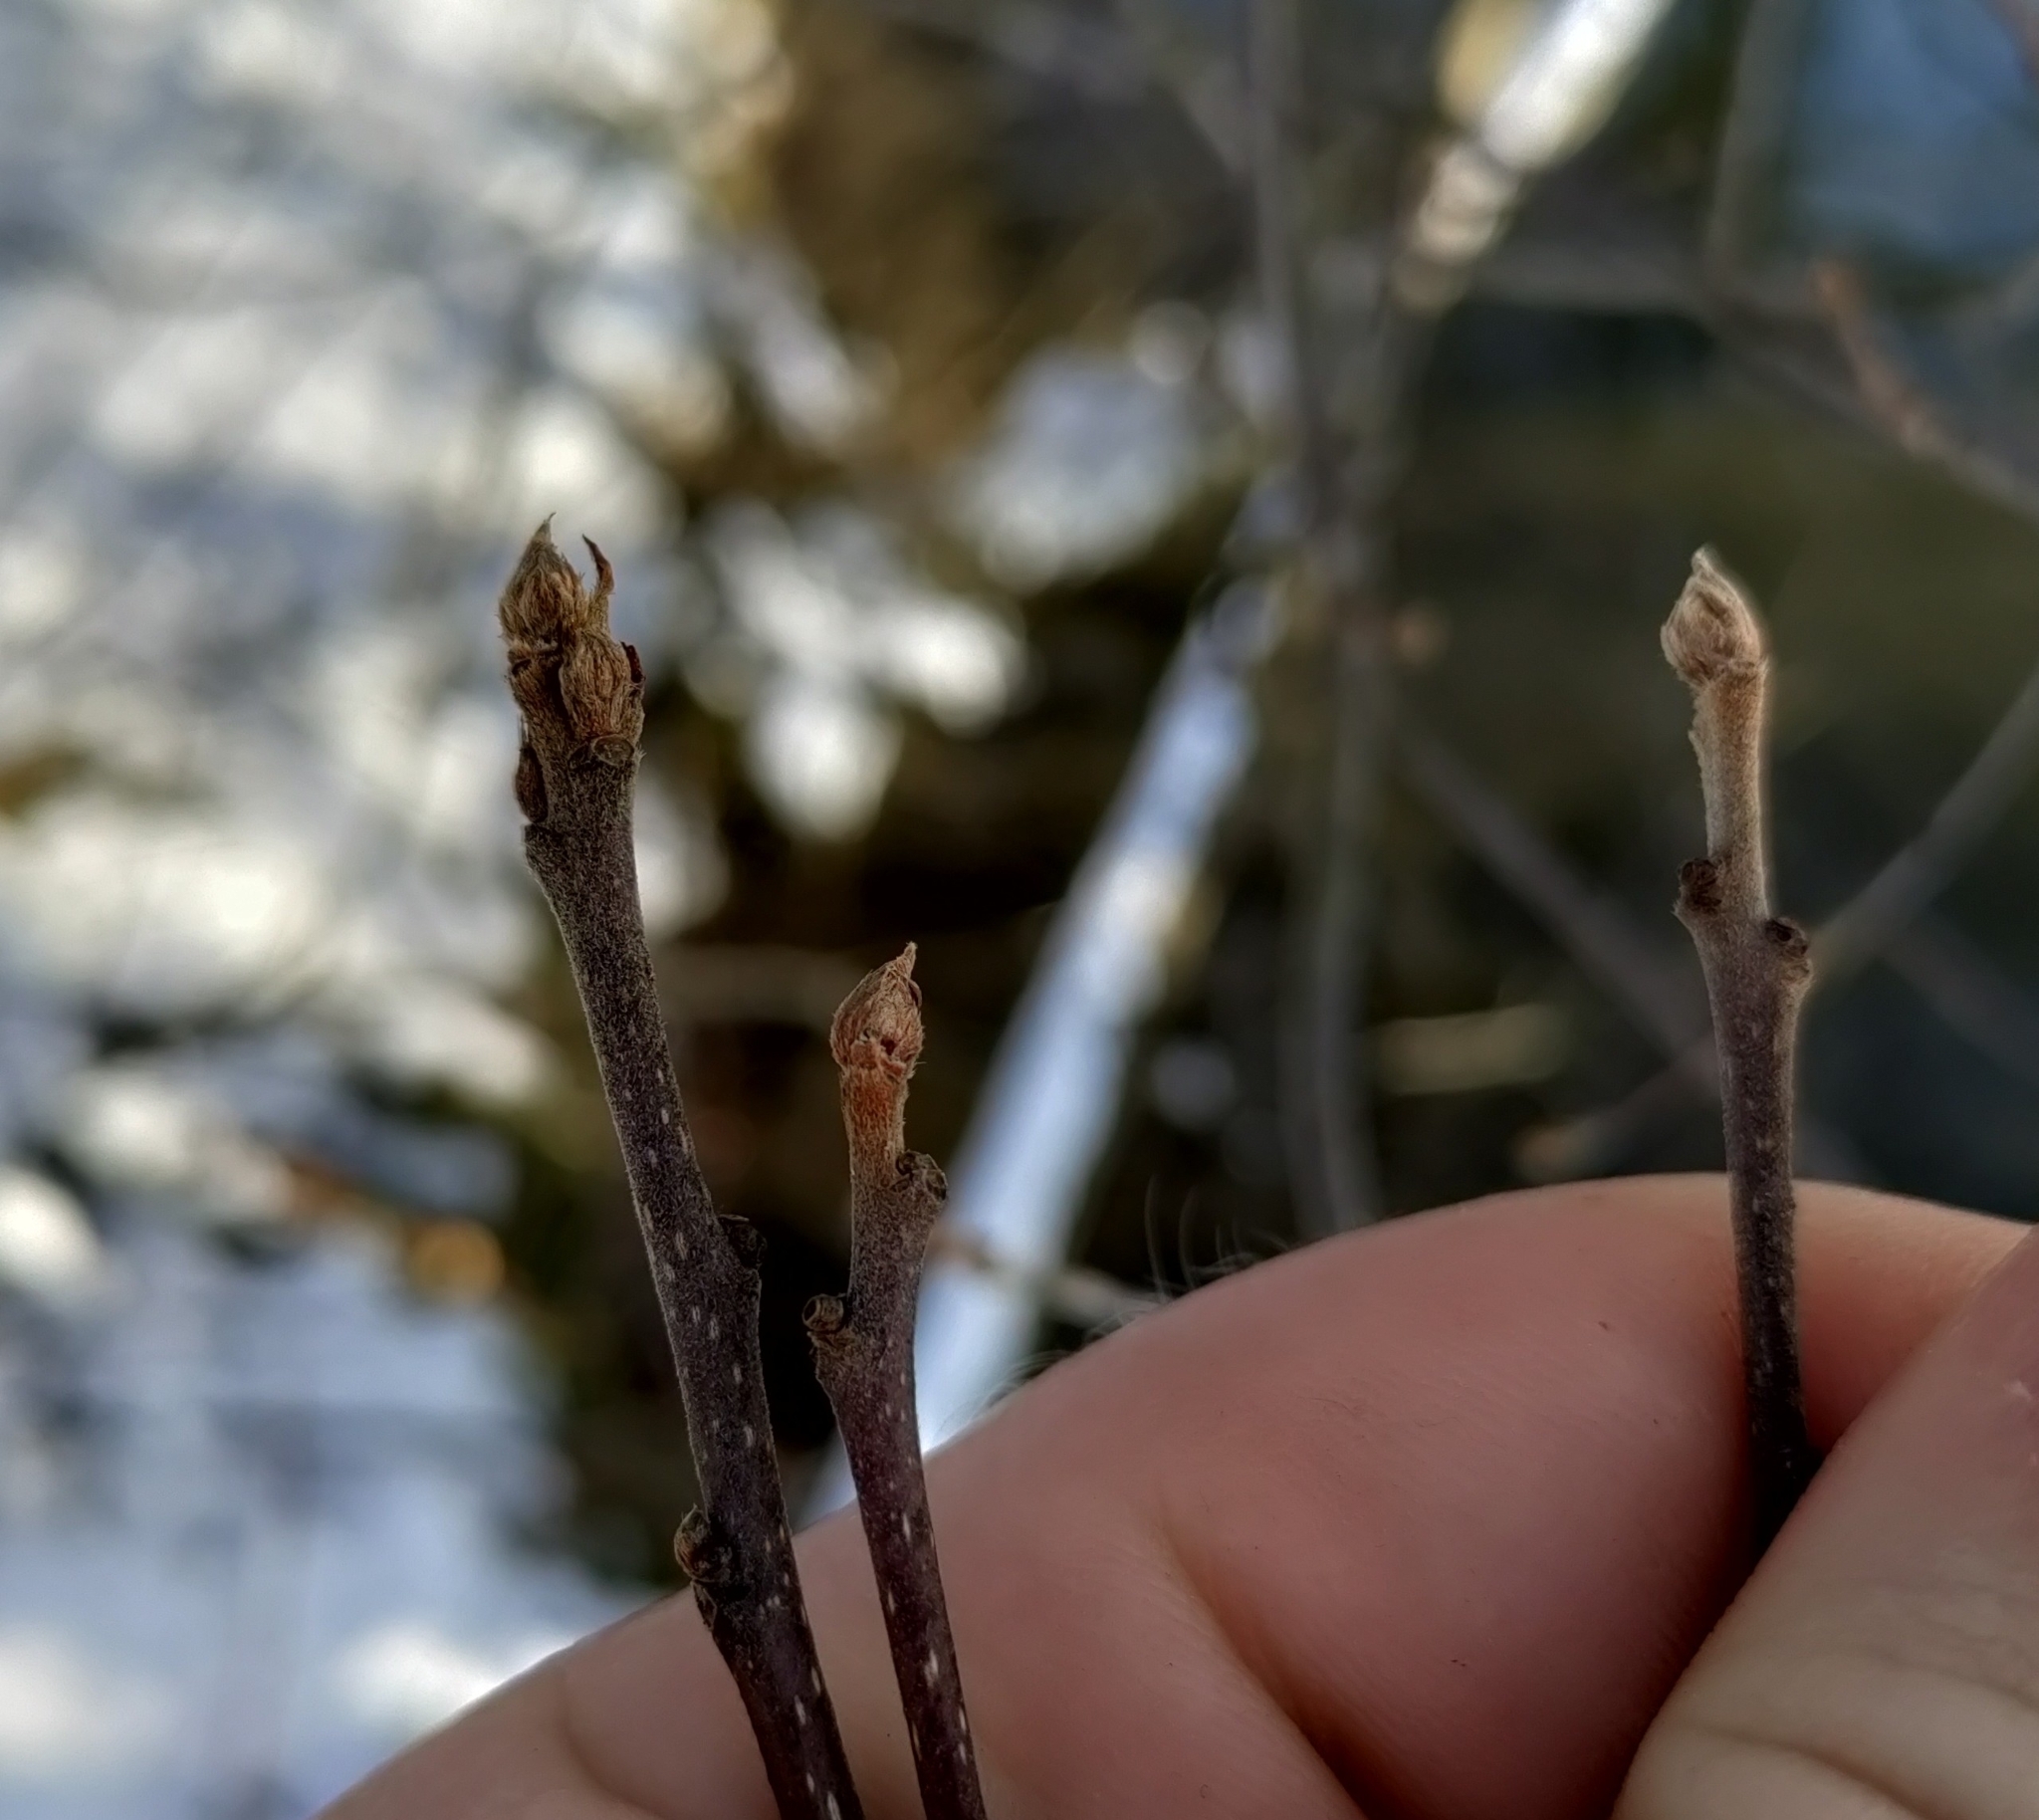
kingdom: Plantae
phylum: Tracheophyta
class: Magnoliopsida
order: Rosales
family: Rhamnaceae
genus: Frangula
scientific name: Frangula alnus
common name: Alder buckthorn
